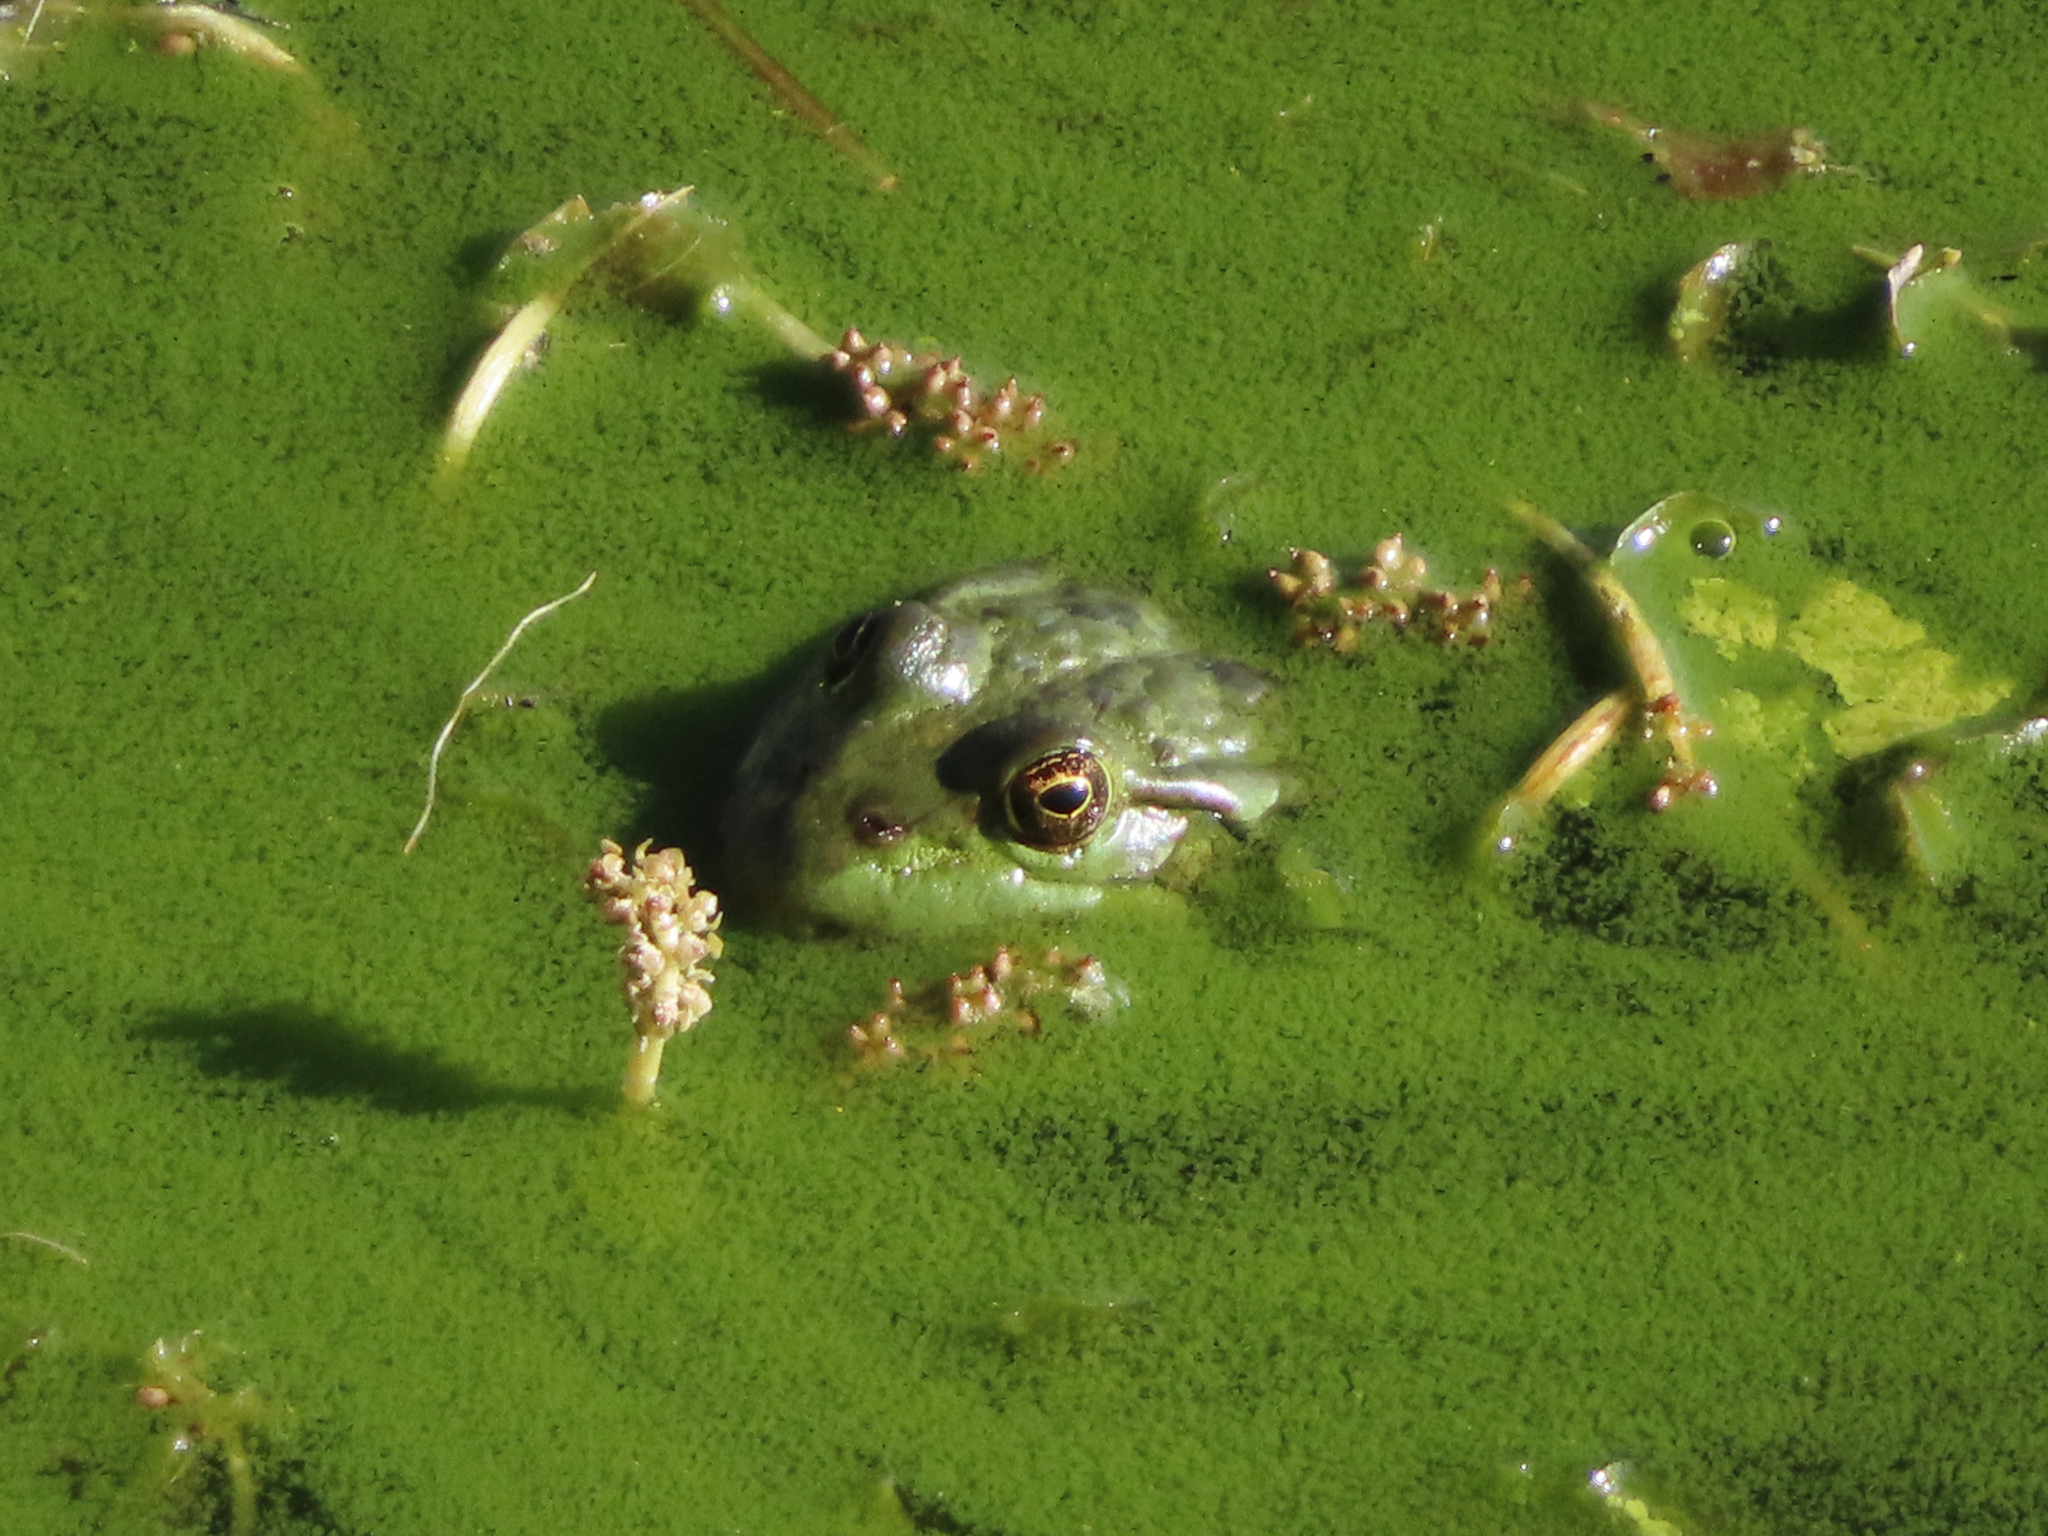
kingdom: Animalia
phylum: Chordata
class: Amphibia
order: Anura
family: Ranidae
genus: Pelophylax
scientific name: Pelophylax ridibundus
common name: Marsh frog
